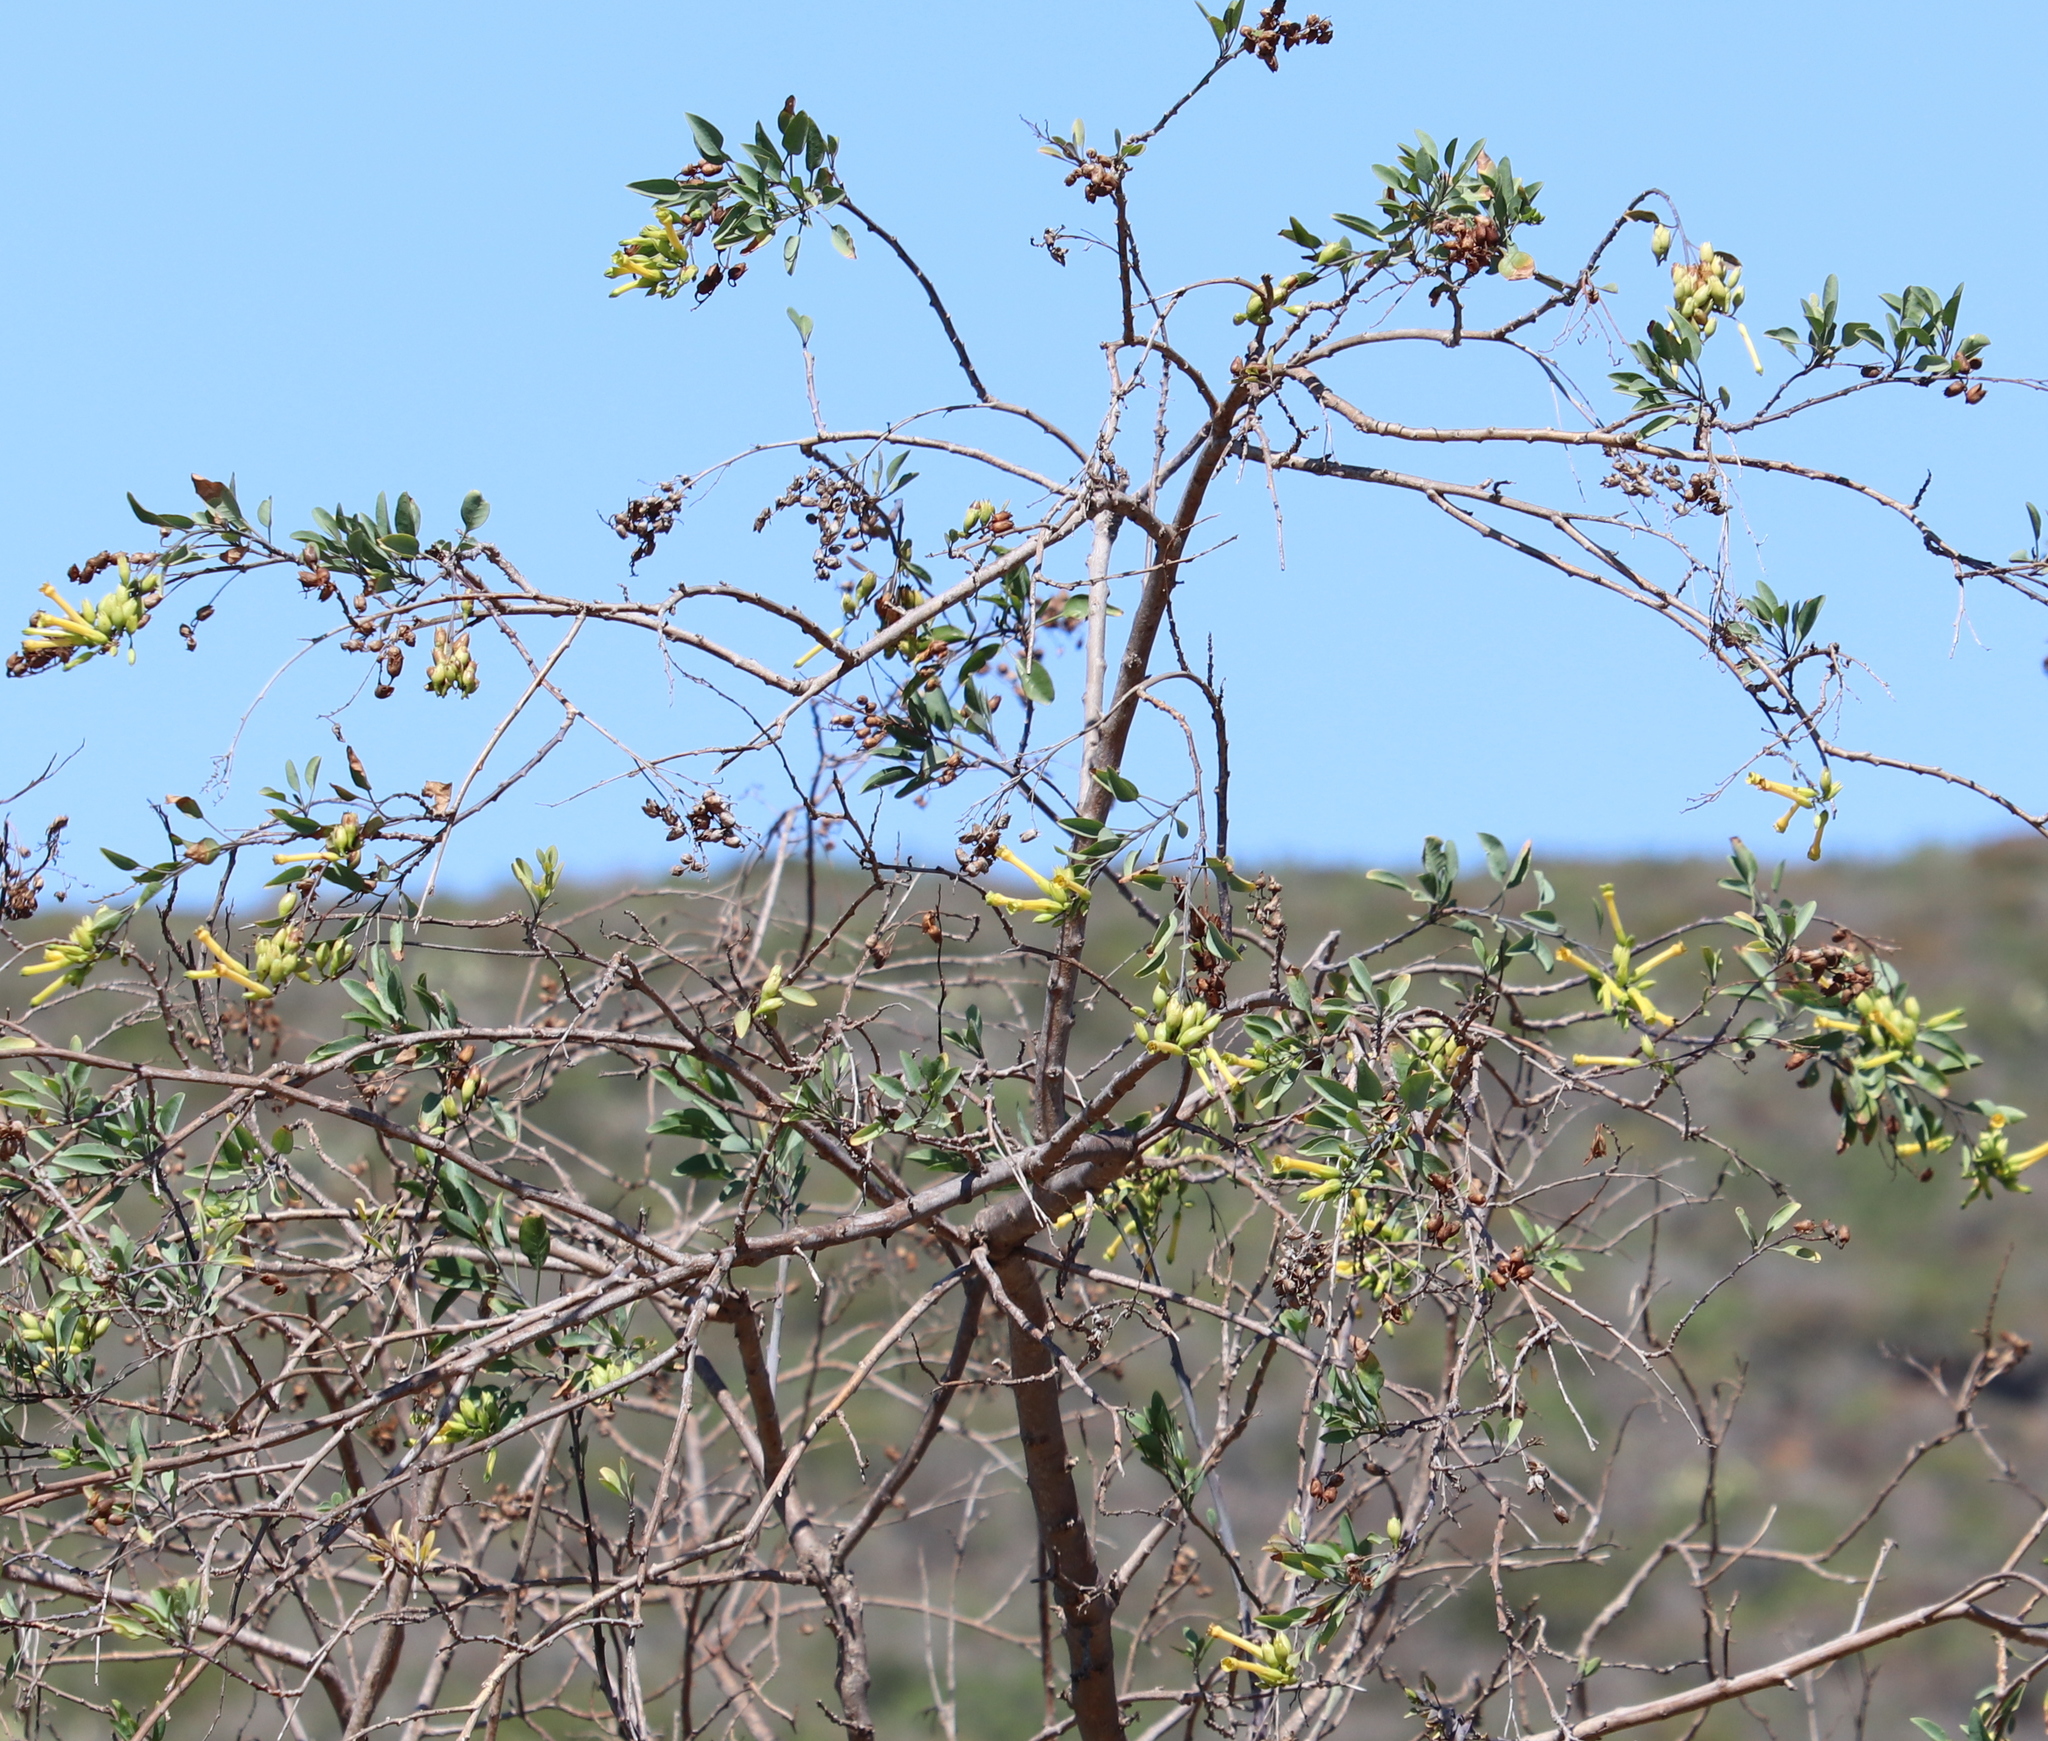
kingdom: Plantae
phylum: Tracheophyta
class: Magnoliopsida
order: Solanales
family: Solanaceae
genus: Nicotiana
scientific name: Nicotiana glauca
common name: Tree tobacco
